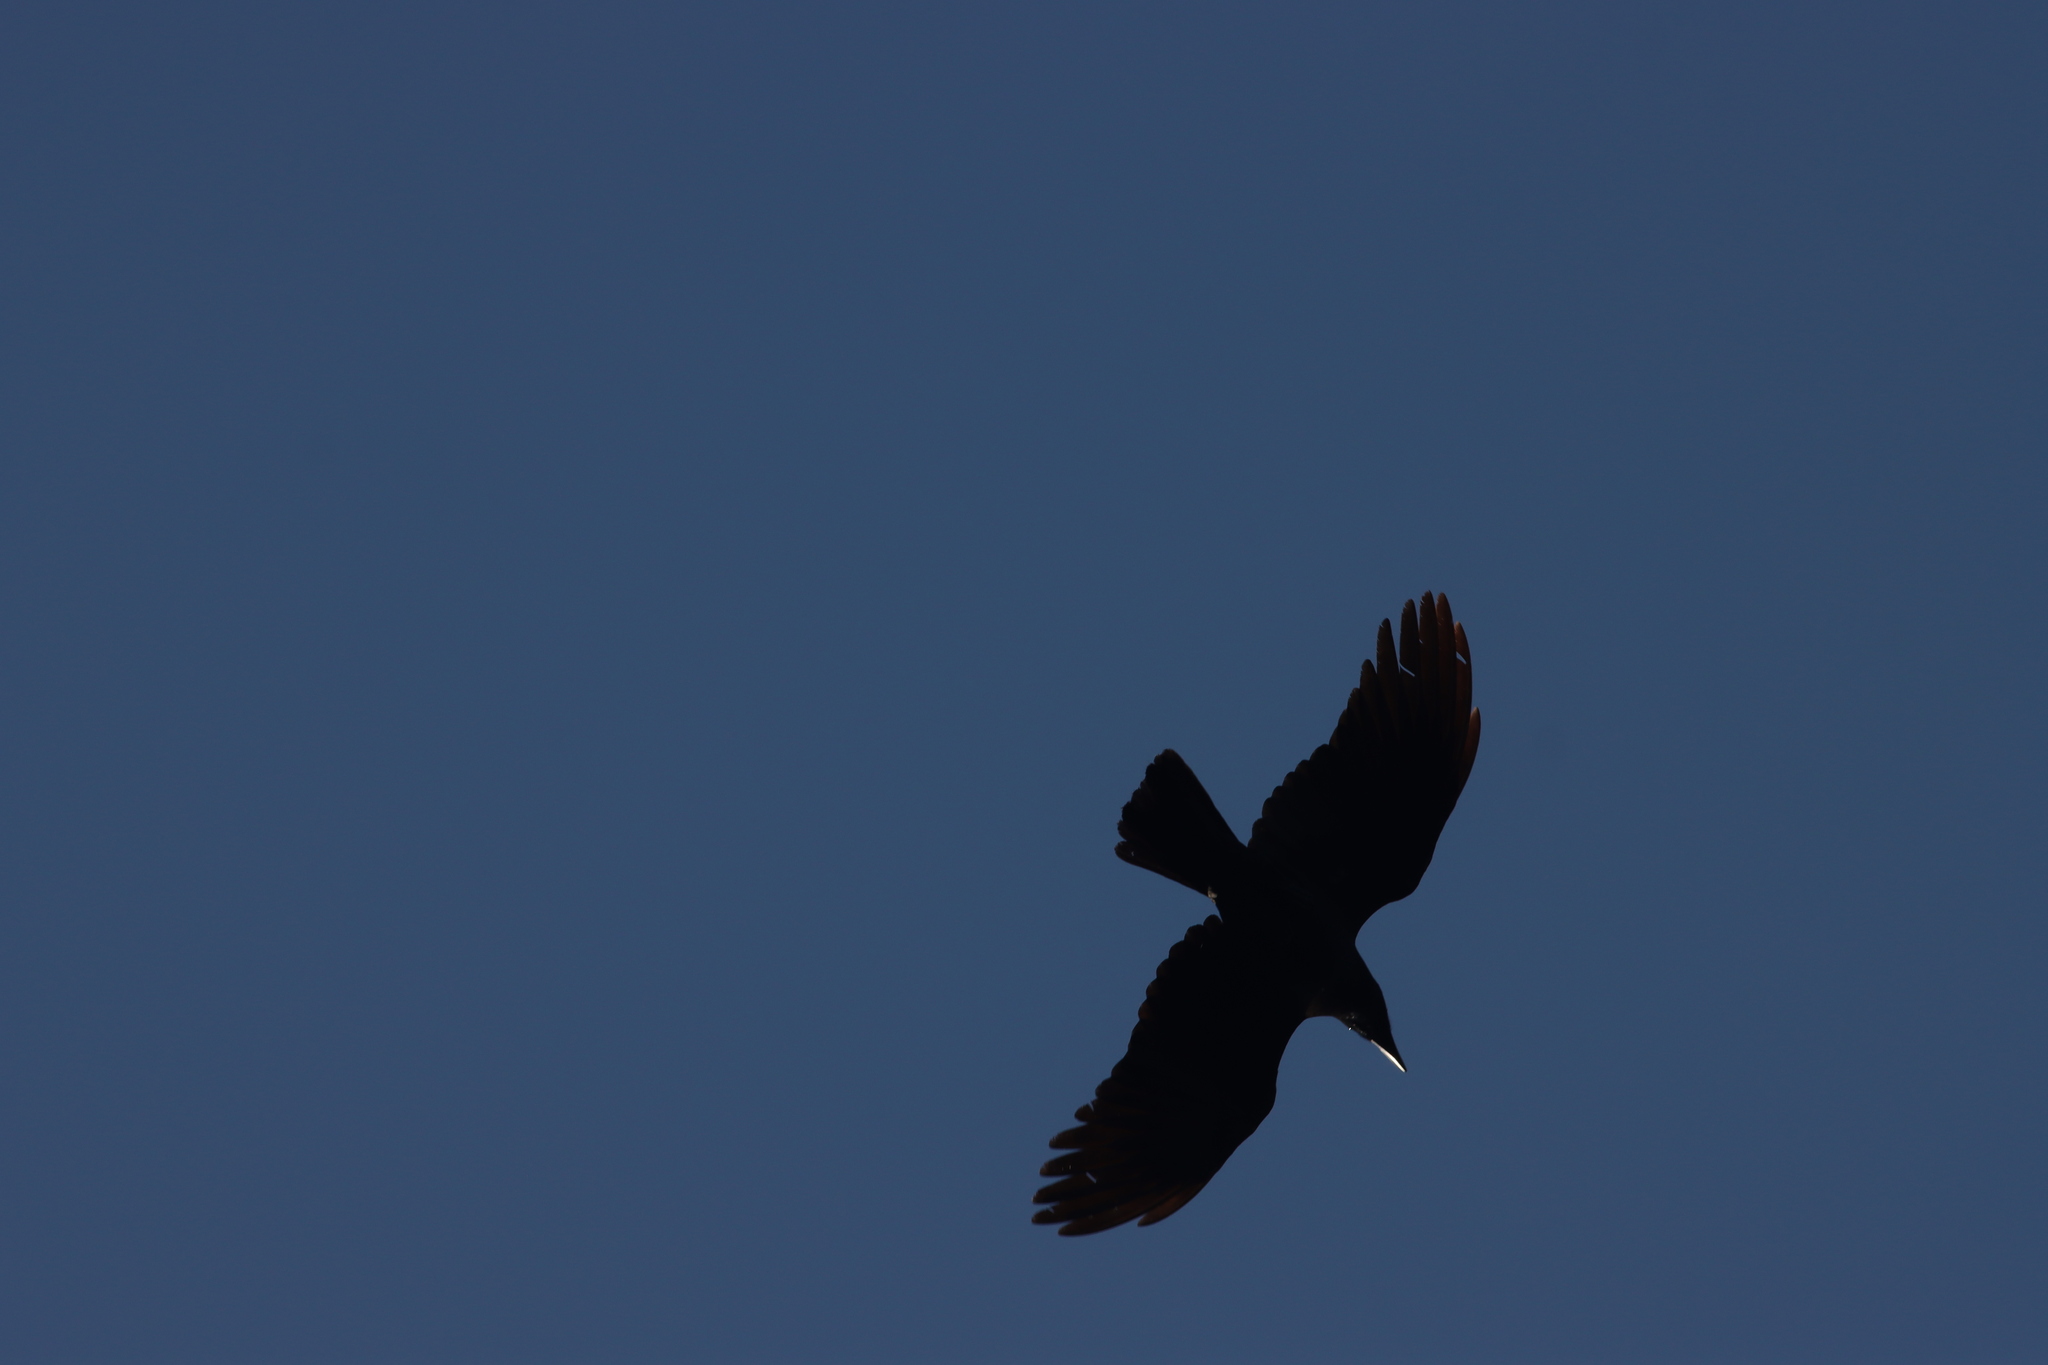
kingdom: Animalia
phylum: Chordata
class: Aves
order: Passeriformes
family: Corvidae
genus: Corvus
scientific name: Corvus macrorhynchos
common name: Large-billed crow
